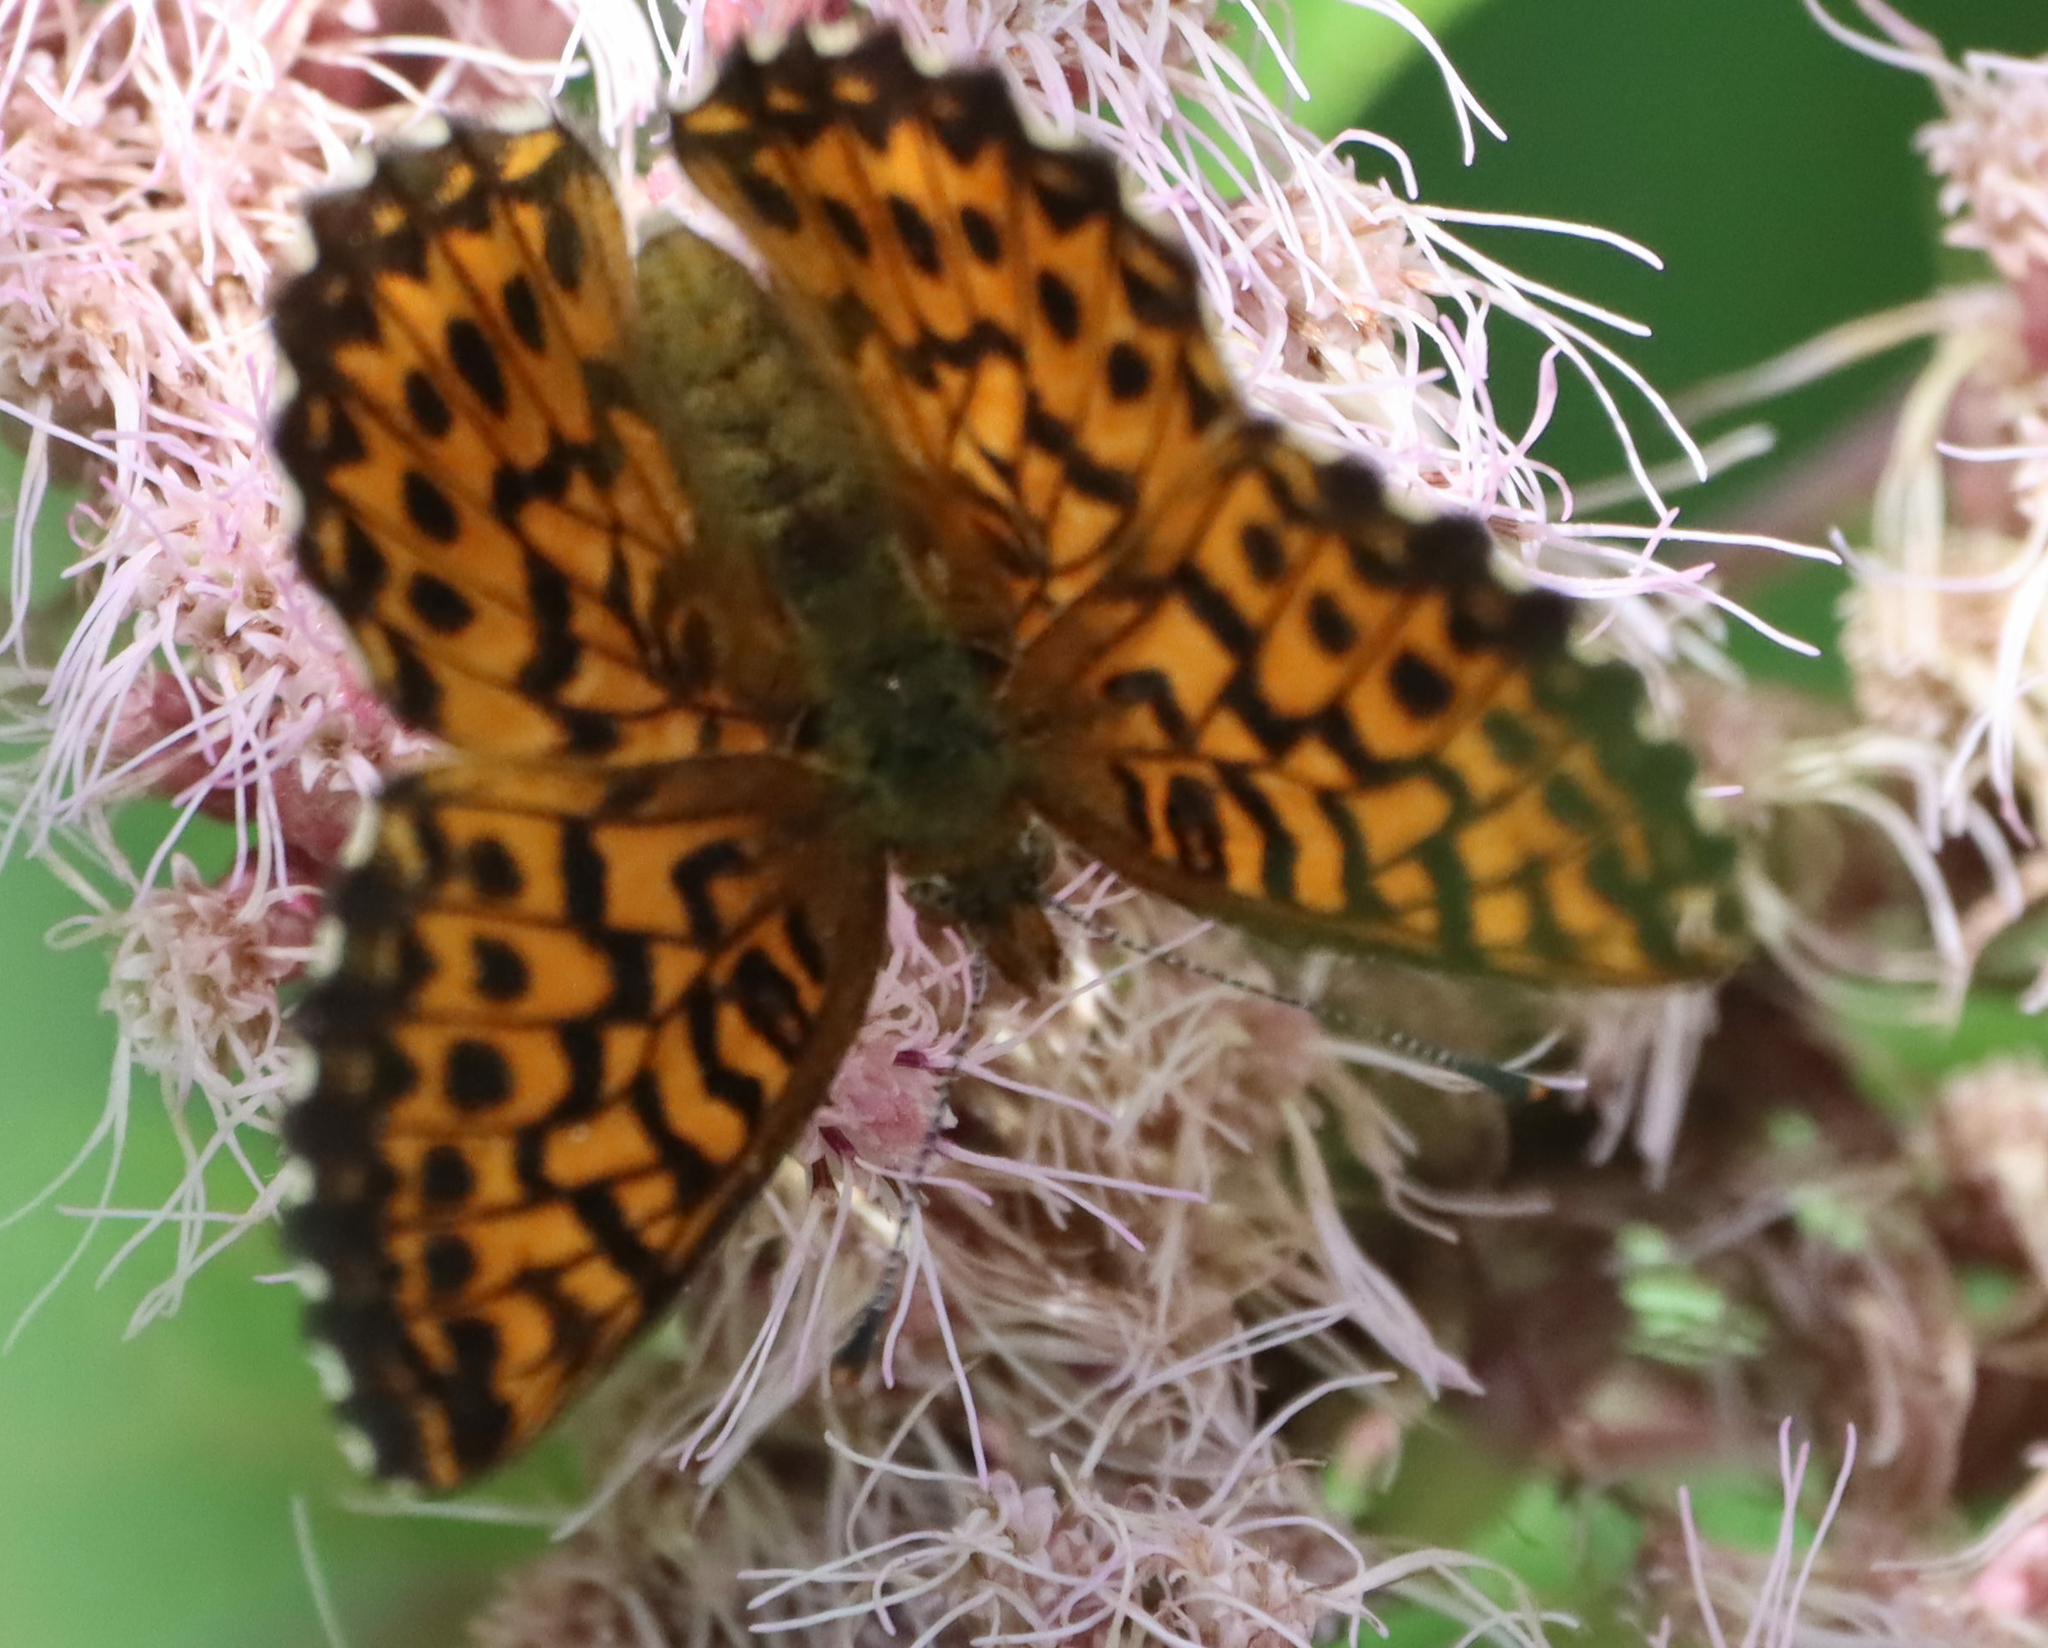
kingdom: Animalia
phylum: Arthropoda
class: Insecta
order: Lepidoptera
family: Nymphalidae
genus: Boloria
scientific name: Boloria chariclea
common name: Arctic fritillary
